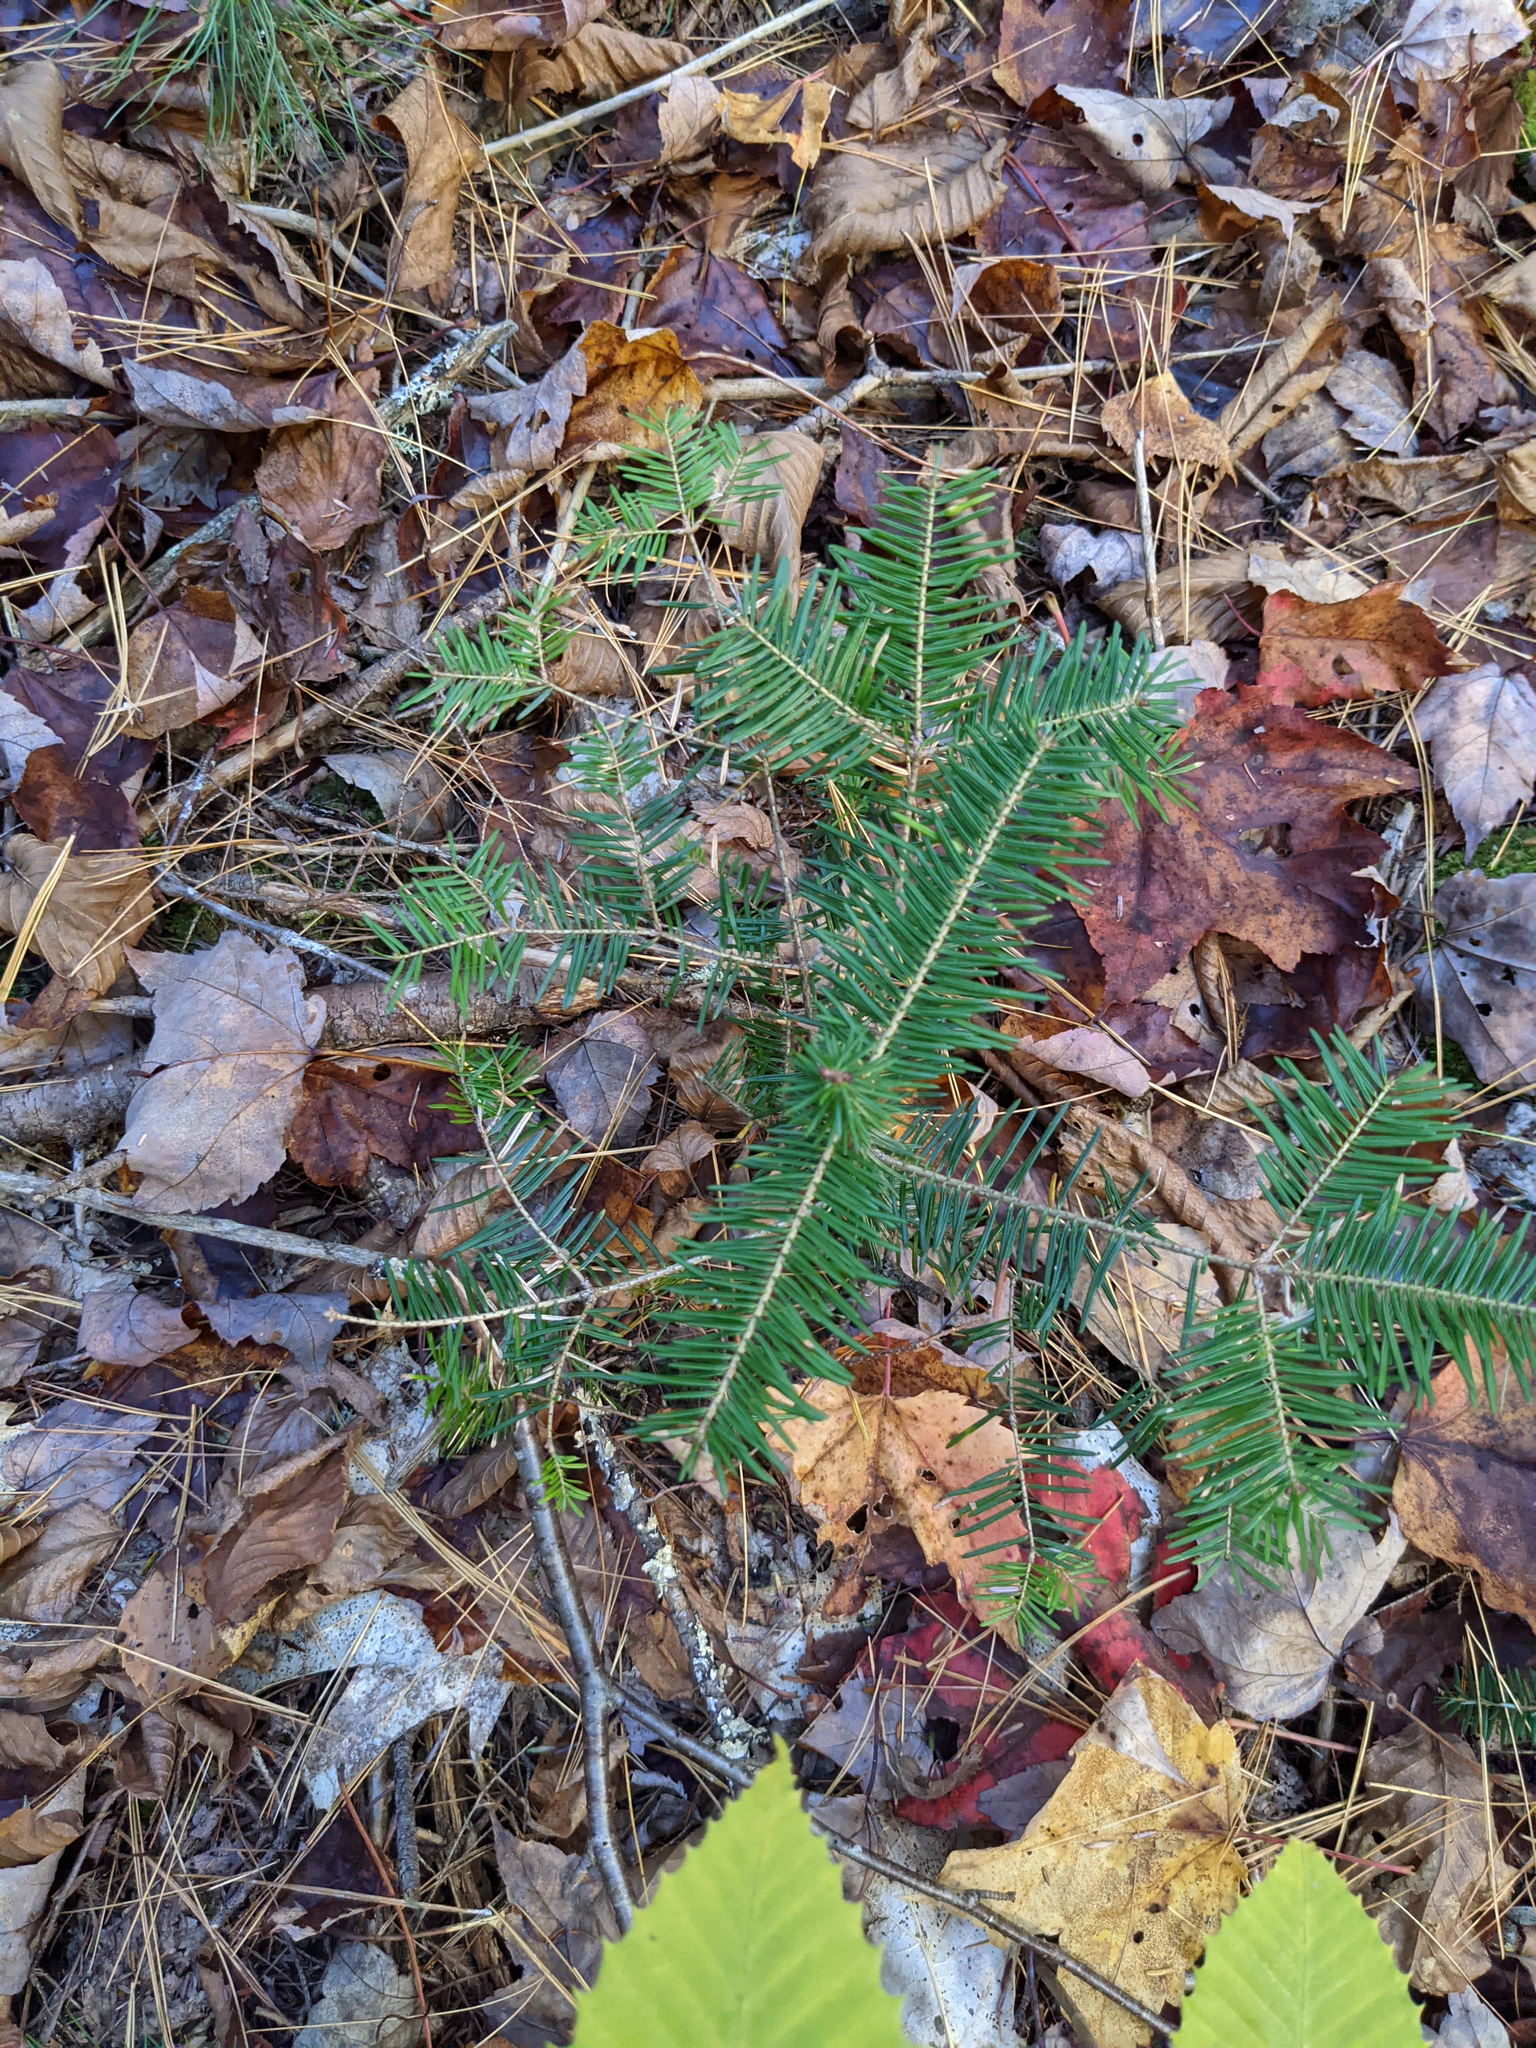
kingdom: Plantae
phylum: Tracheophyta
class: Pinopsida
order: Pinales
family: Pinaceae
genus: Abies
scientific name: Abies balsamea
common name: Balsam fir
